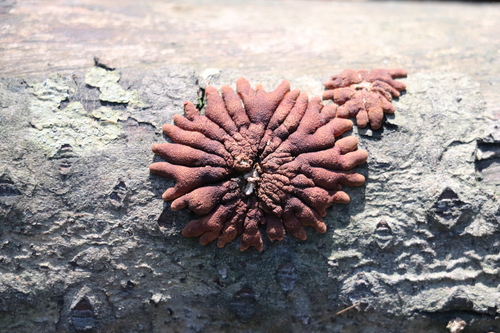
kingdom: Fungi
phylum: Ascomycota
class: Sordariomycetes
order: Hypocreales
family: Hypocreaceae
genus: Hypocreopsis
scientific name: Hypocreopsis lichenoides
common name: Willow gloves
